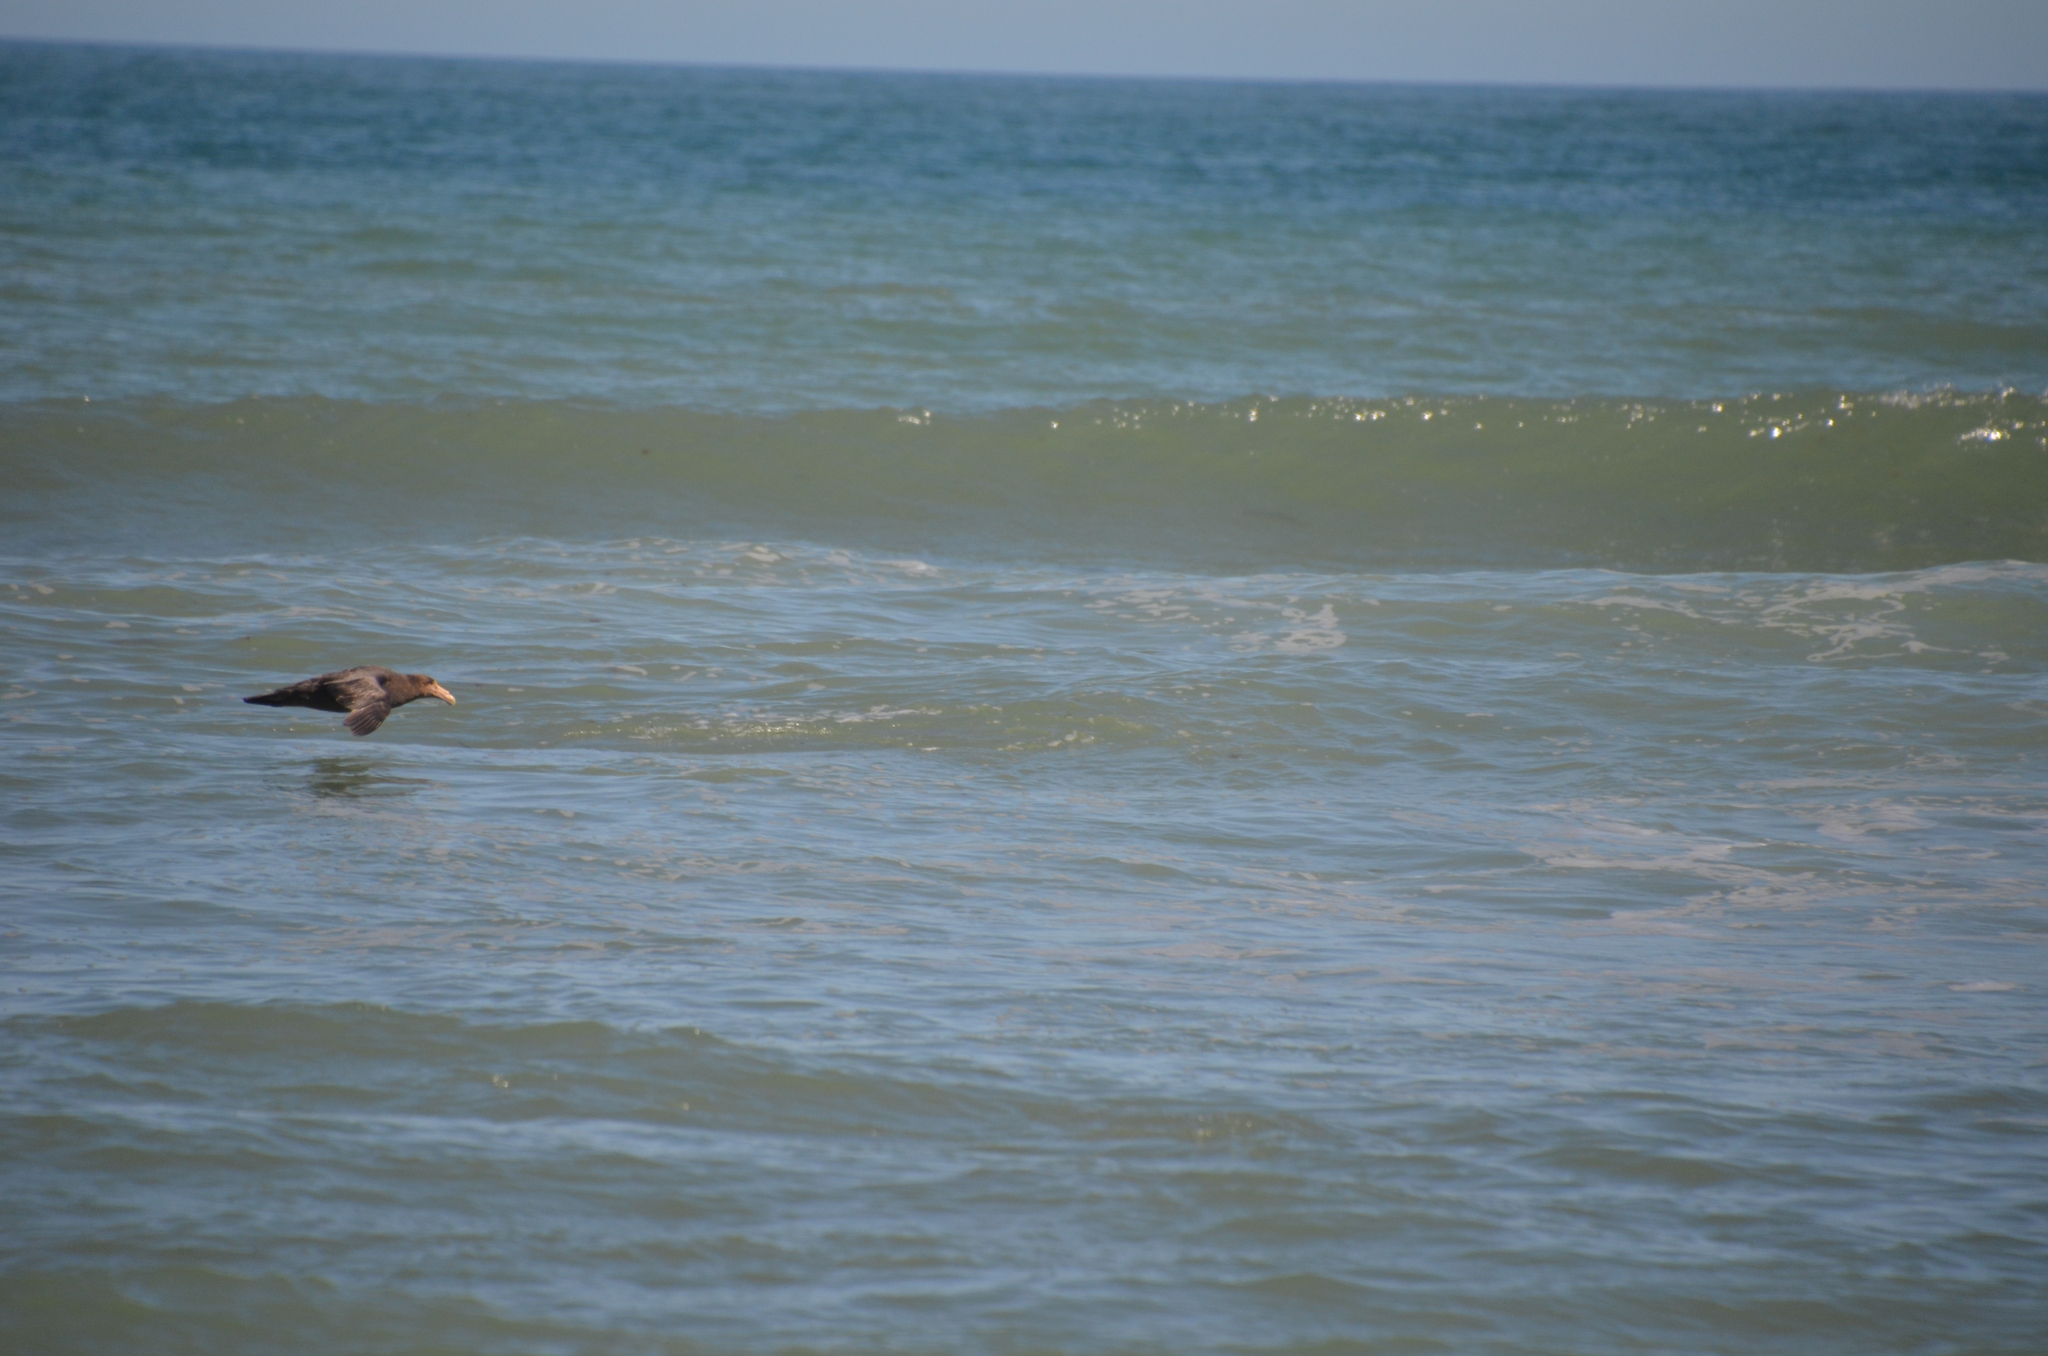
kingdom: Animalia
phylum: Chordata
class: Aves
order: Procellariiformes
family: Procellariidae
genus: Macronectes
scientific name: Macronectes giganteus
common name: Southern giant petrel
